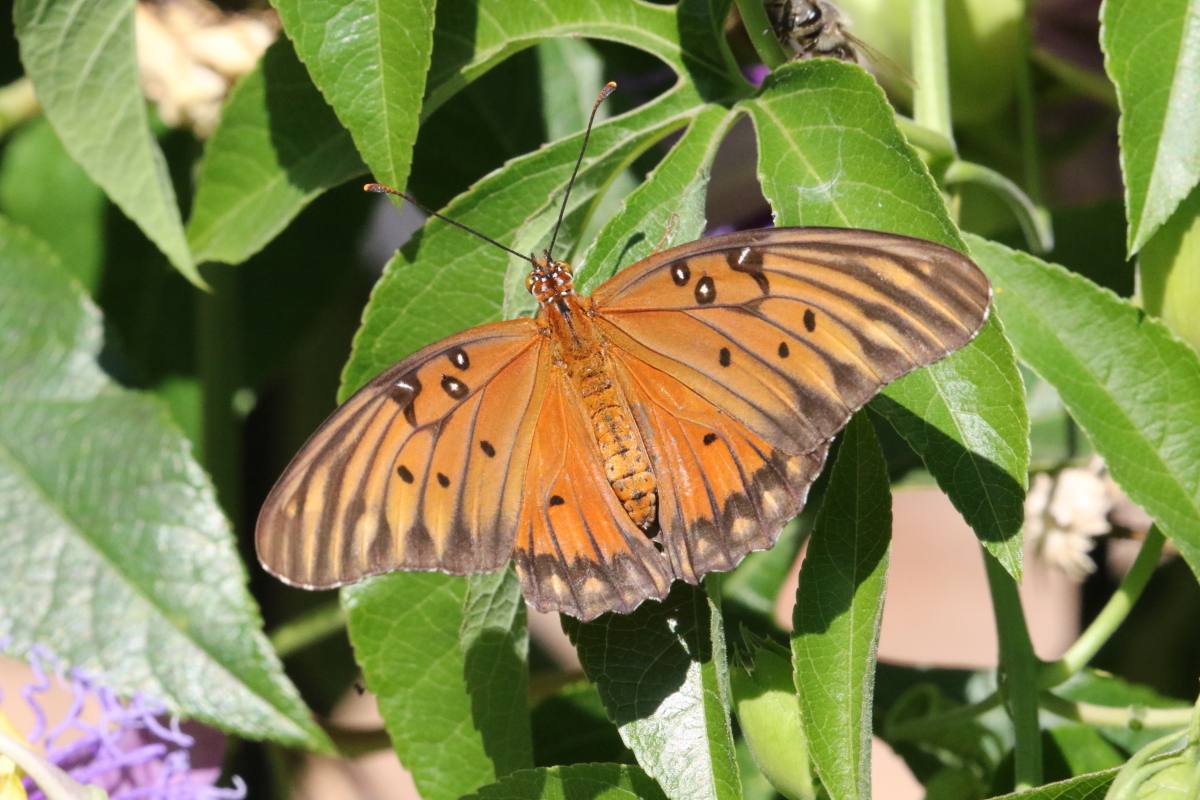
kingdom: Animalia
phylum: Arthropoda
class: Insecta
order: Lepidoptera
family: Nymphalidae
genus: Dione
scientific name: Dione vanillae
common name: Gulf fritillary
